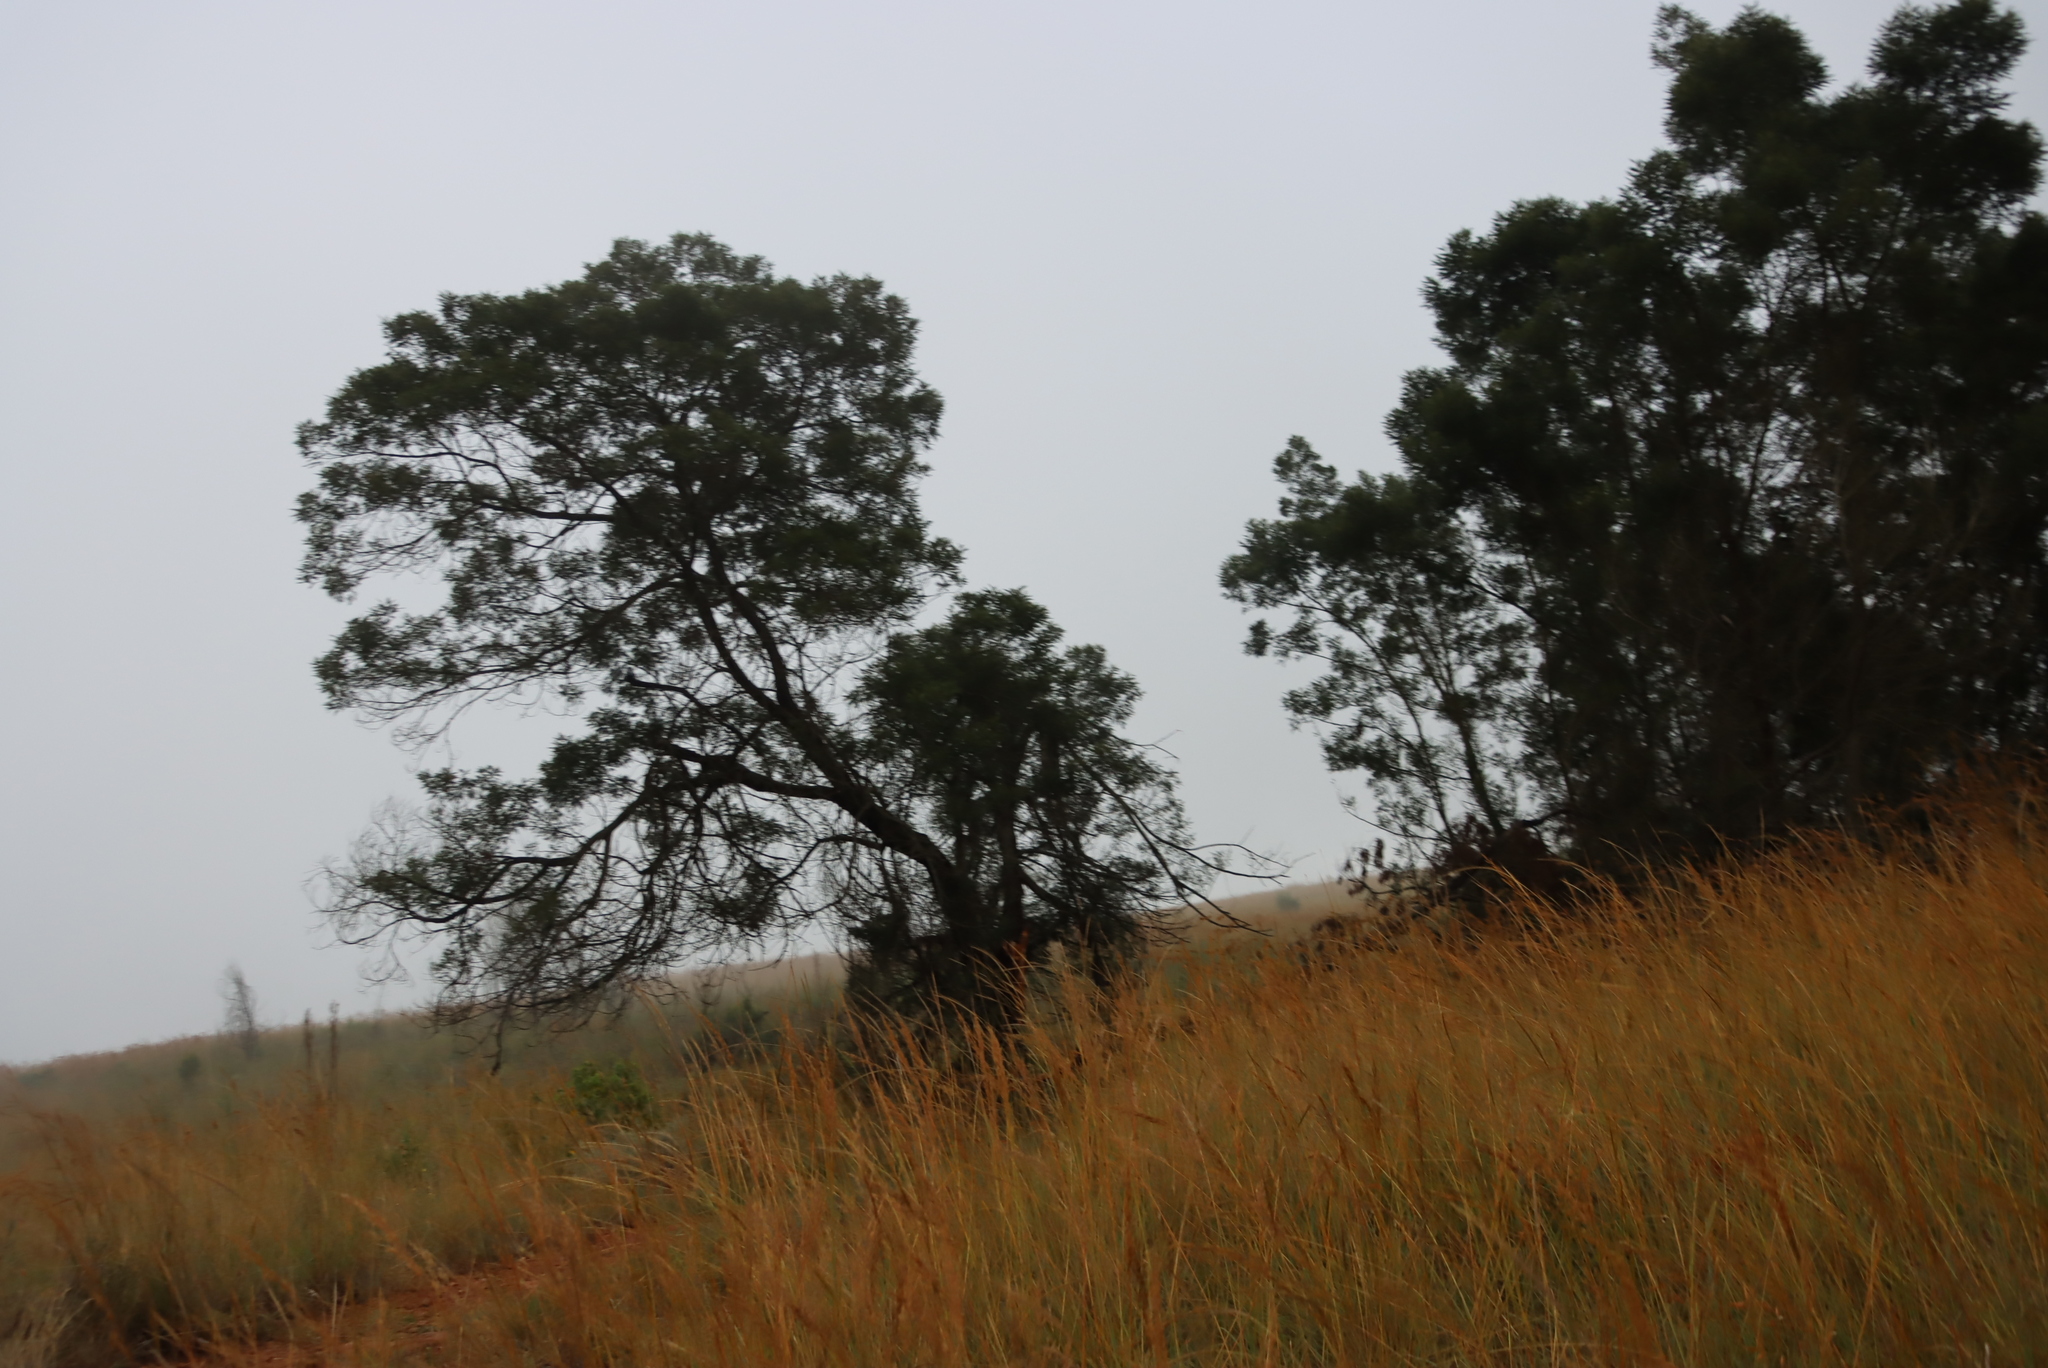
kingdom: Plantae
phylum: Tracheophyta
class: Magnoliopsida
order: Fabales
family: Fabaceae
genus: Acacia
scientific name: Acacia mearnsii
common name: Black wattle
